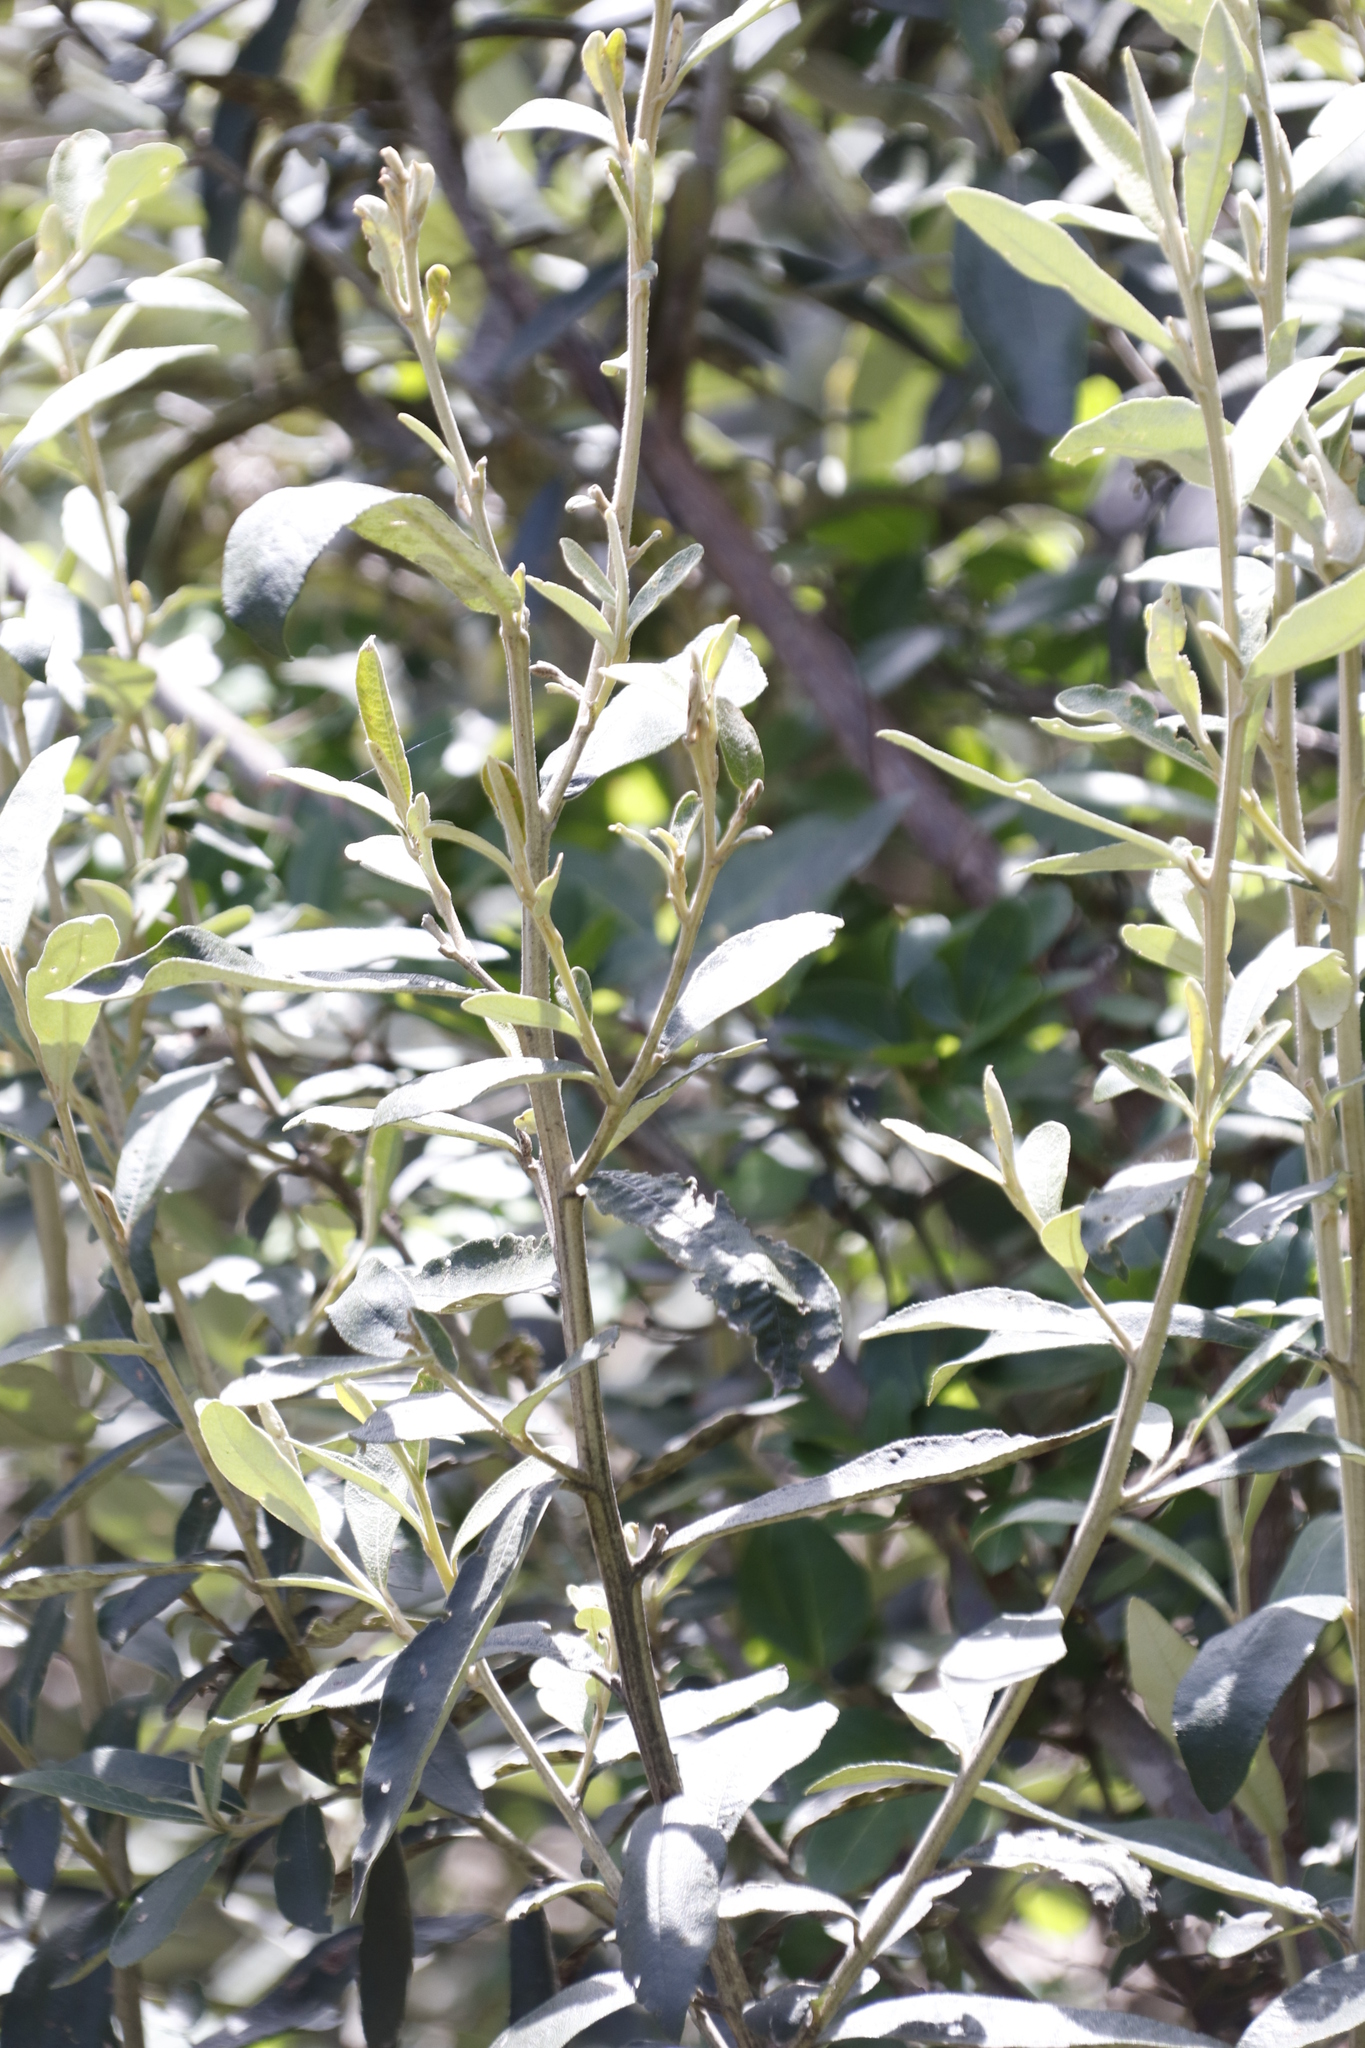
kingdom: Plantae
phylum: Tracheophyta
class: Magnoliopsida
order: Asterales
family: Asteraceae
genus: Tarchonanthus
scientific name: Tarchonanthus littoralis
